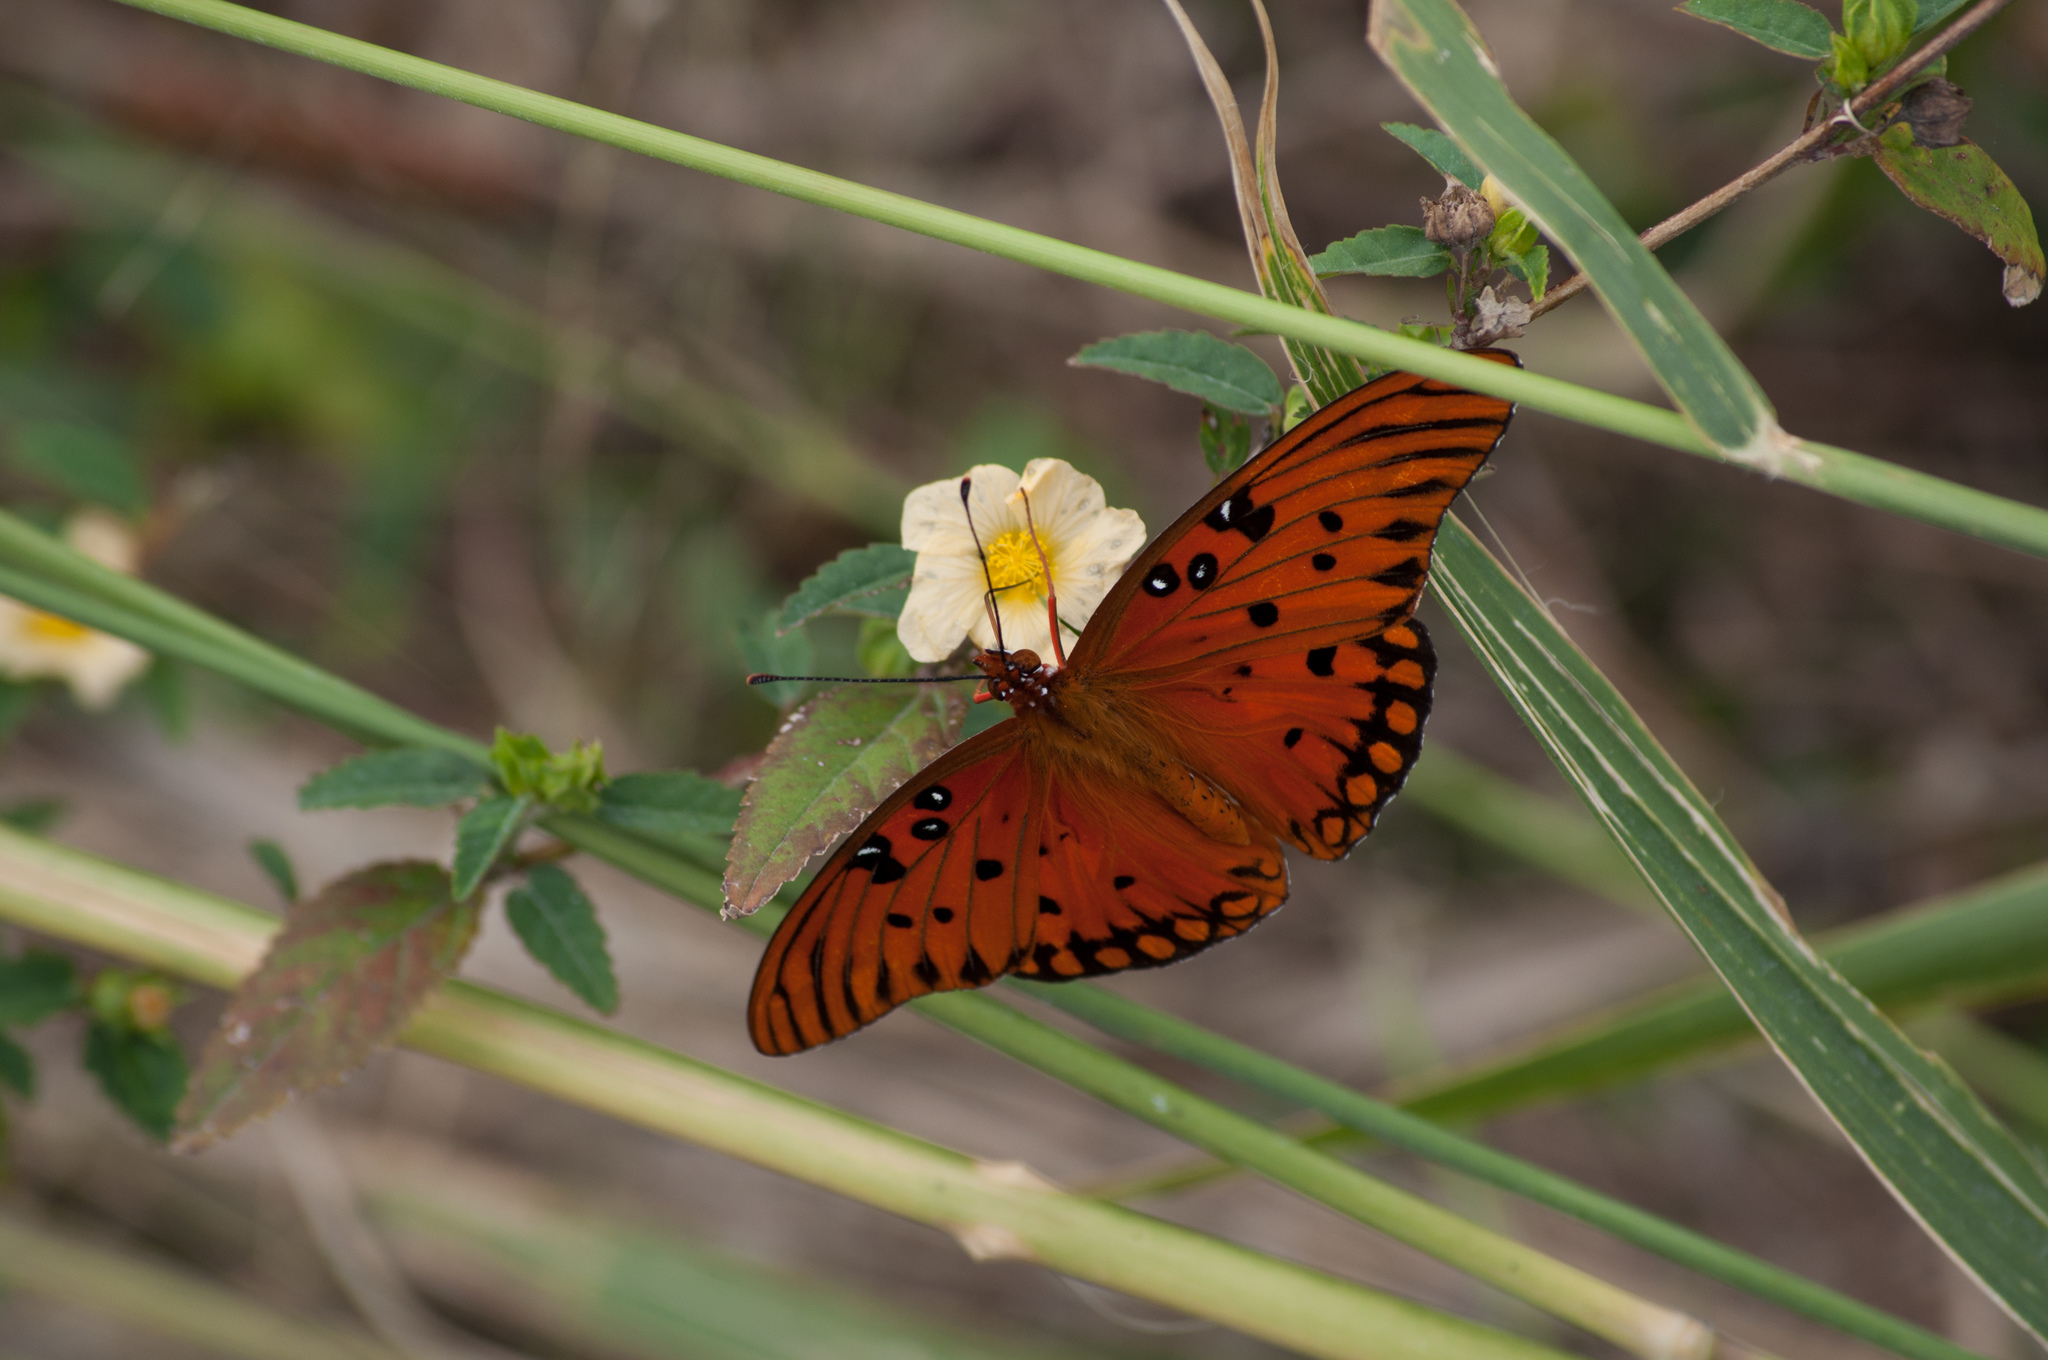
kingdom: Animalia
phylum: Arthropoda
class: Insecta
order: Lepidoptera
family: Nymphalidae
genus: Dione
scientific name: Dione vanillae
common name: Gulf fritillary
